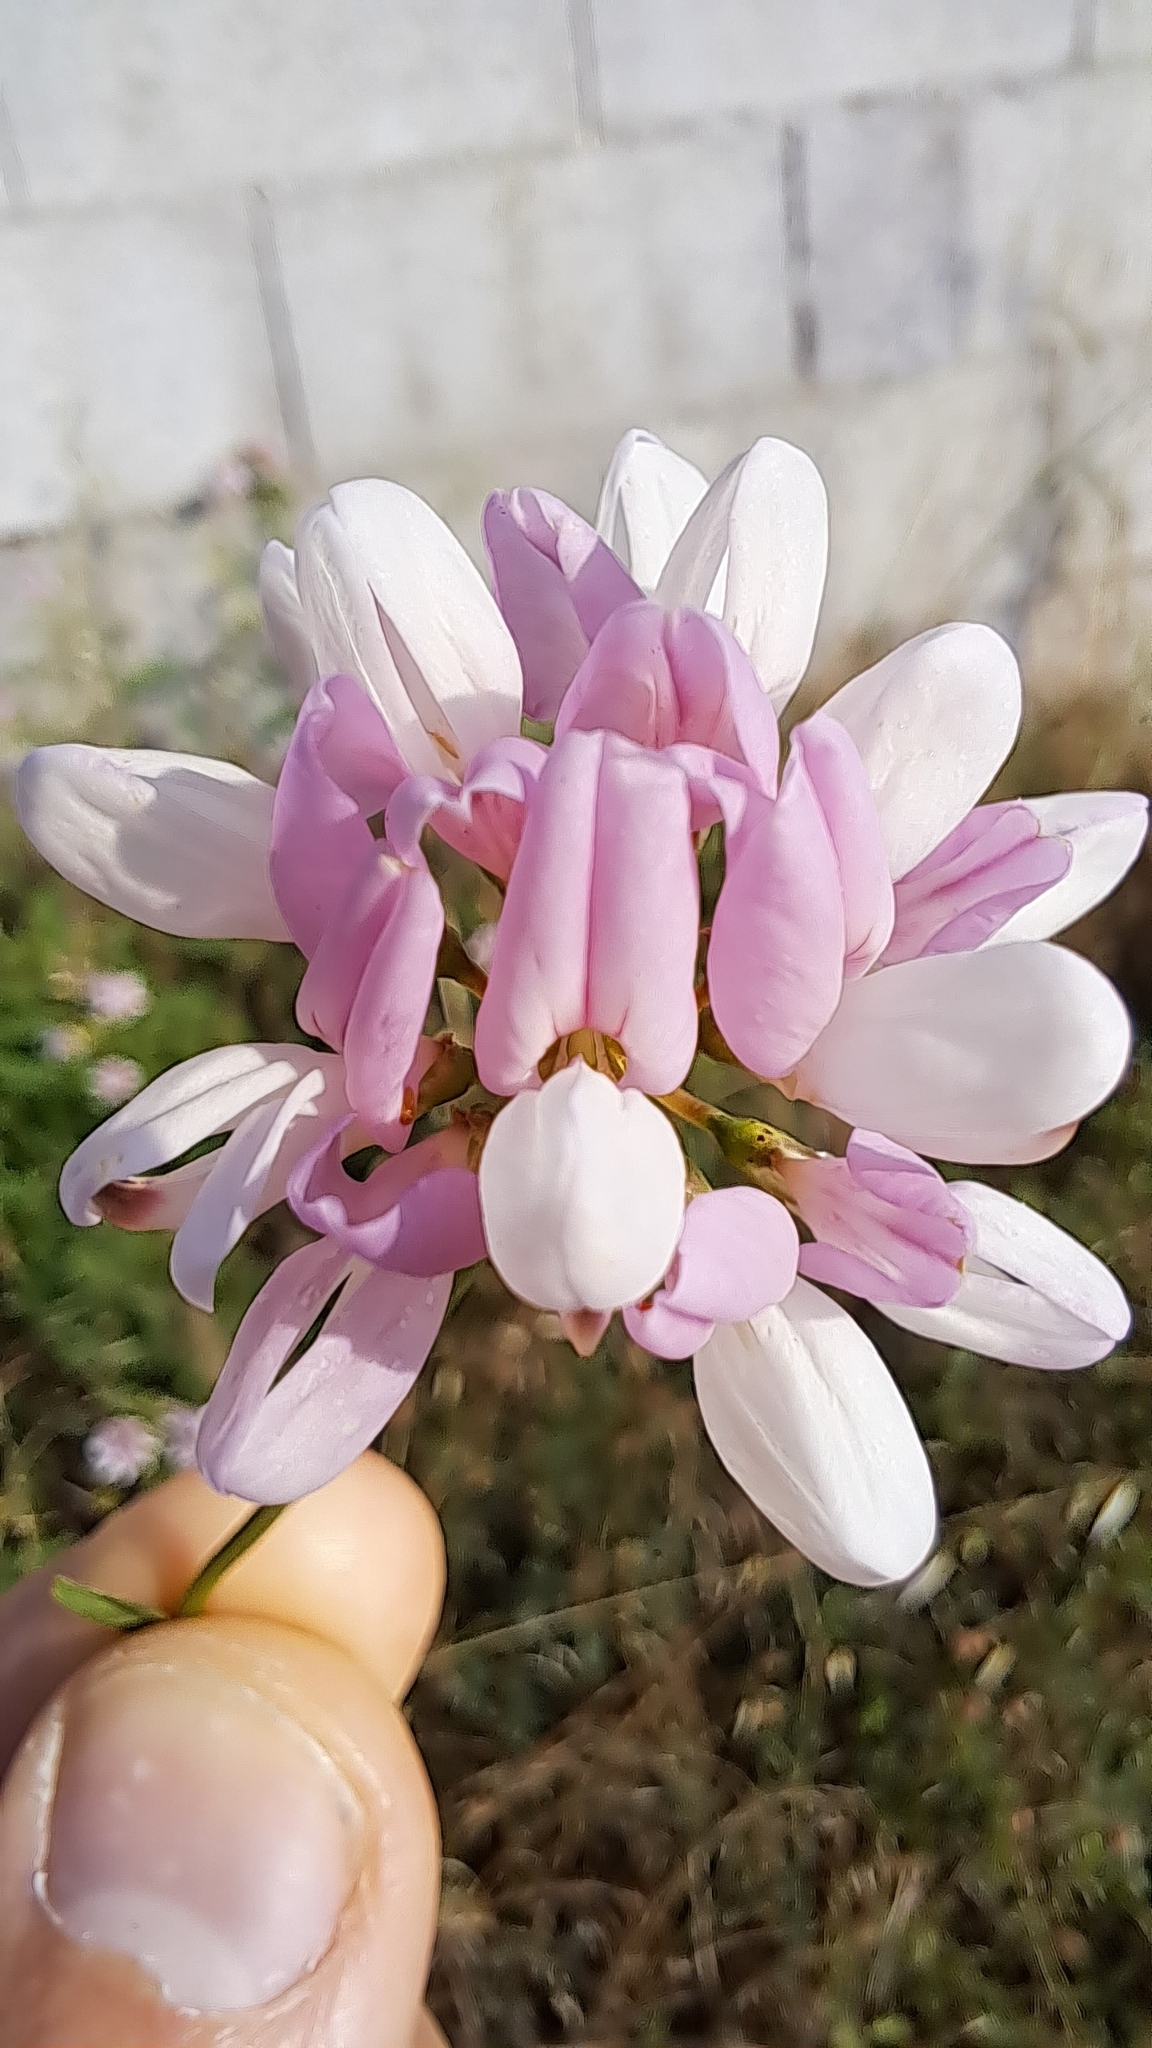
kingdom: Plantae
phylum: Tracheophyta
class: Magnoliopsida
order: Fabales
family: Fabaceae
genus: Coronilla
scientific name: Coronilla varia
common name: Crownvetch
